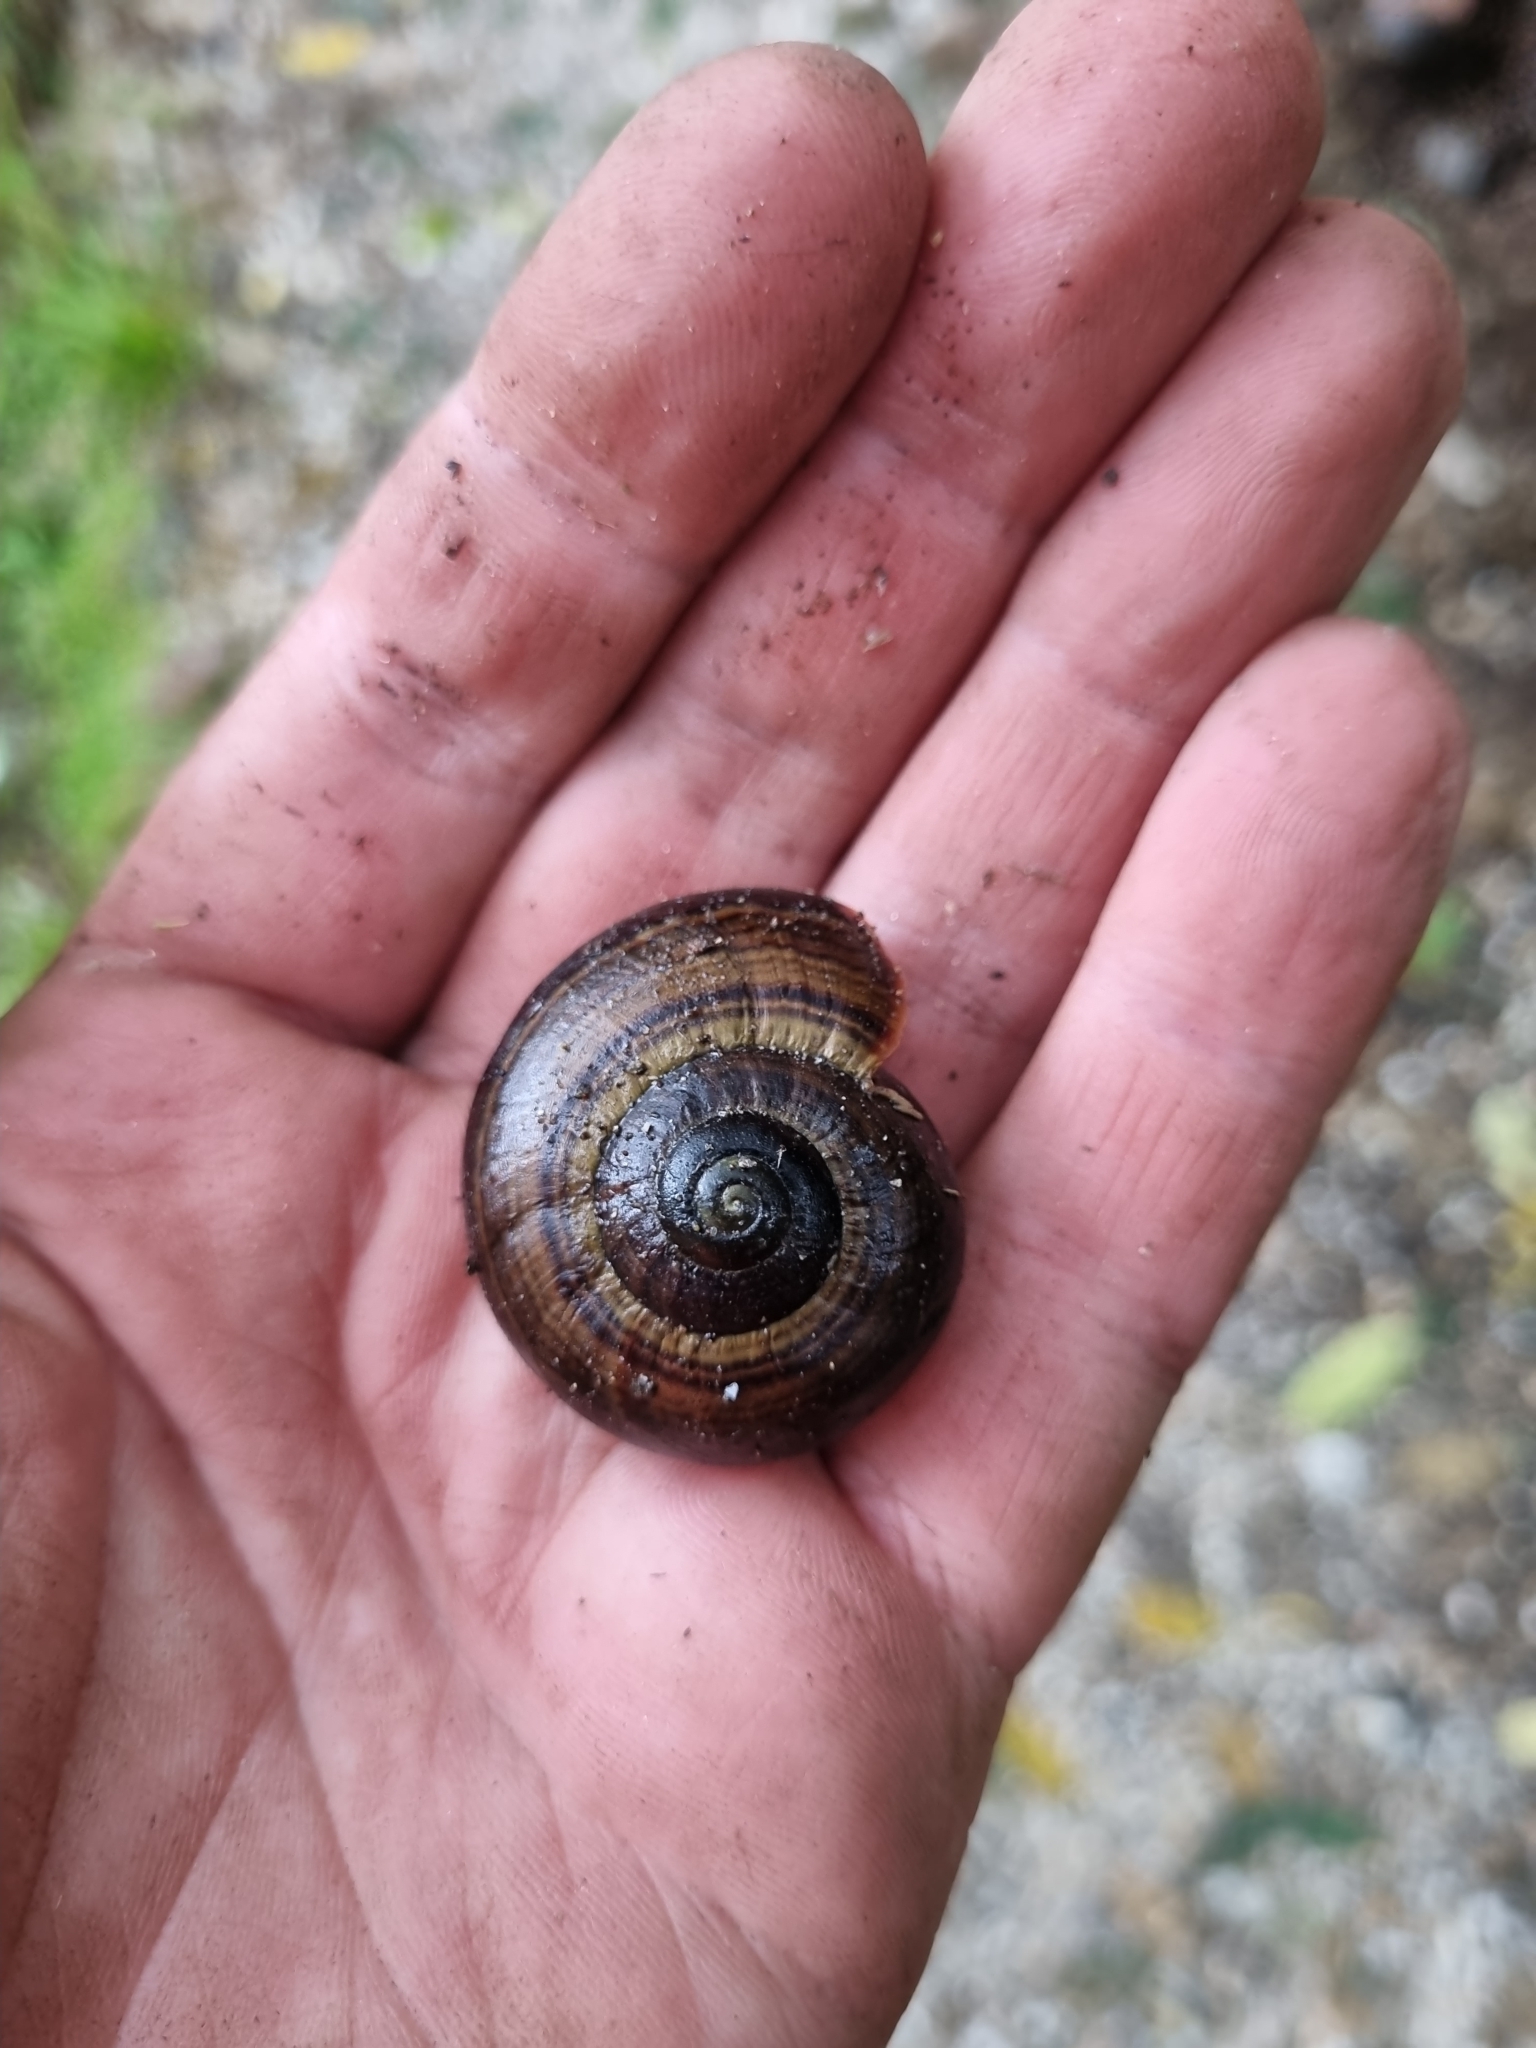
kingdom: Animalia
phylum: Mollusca
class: Gastropoda
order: Stylommatophora
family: Rhytididae
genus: Powelliphanta
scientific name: Powelliphanta hochstetteri
